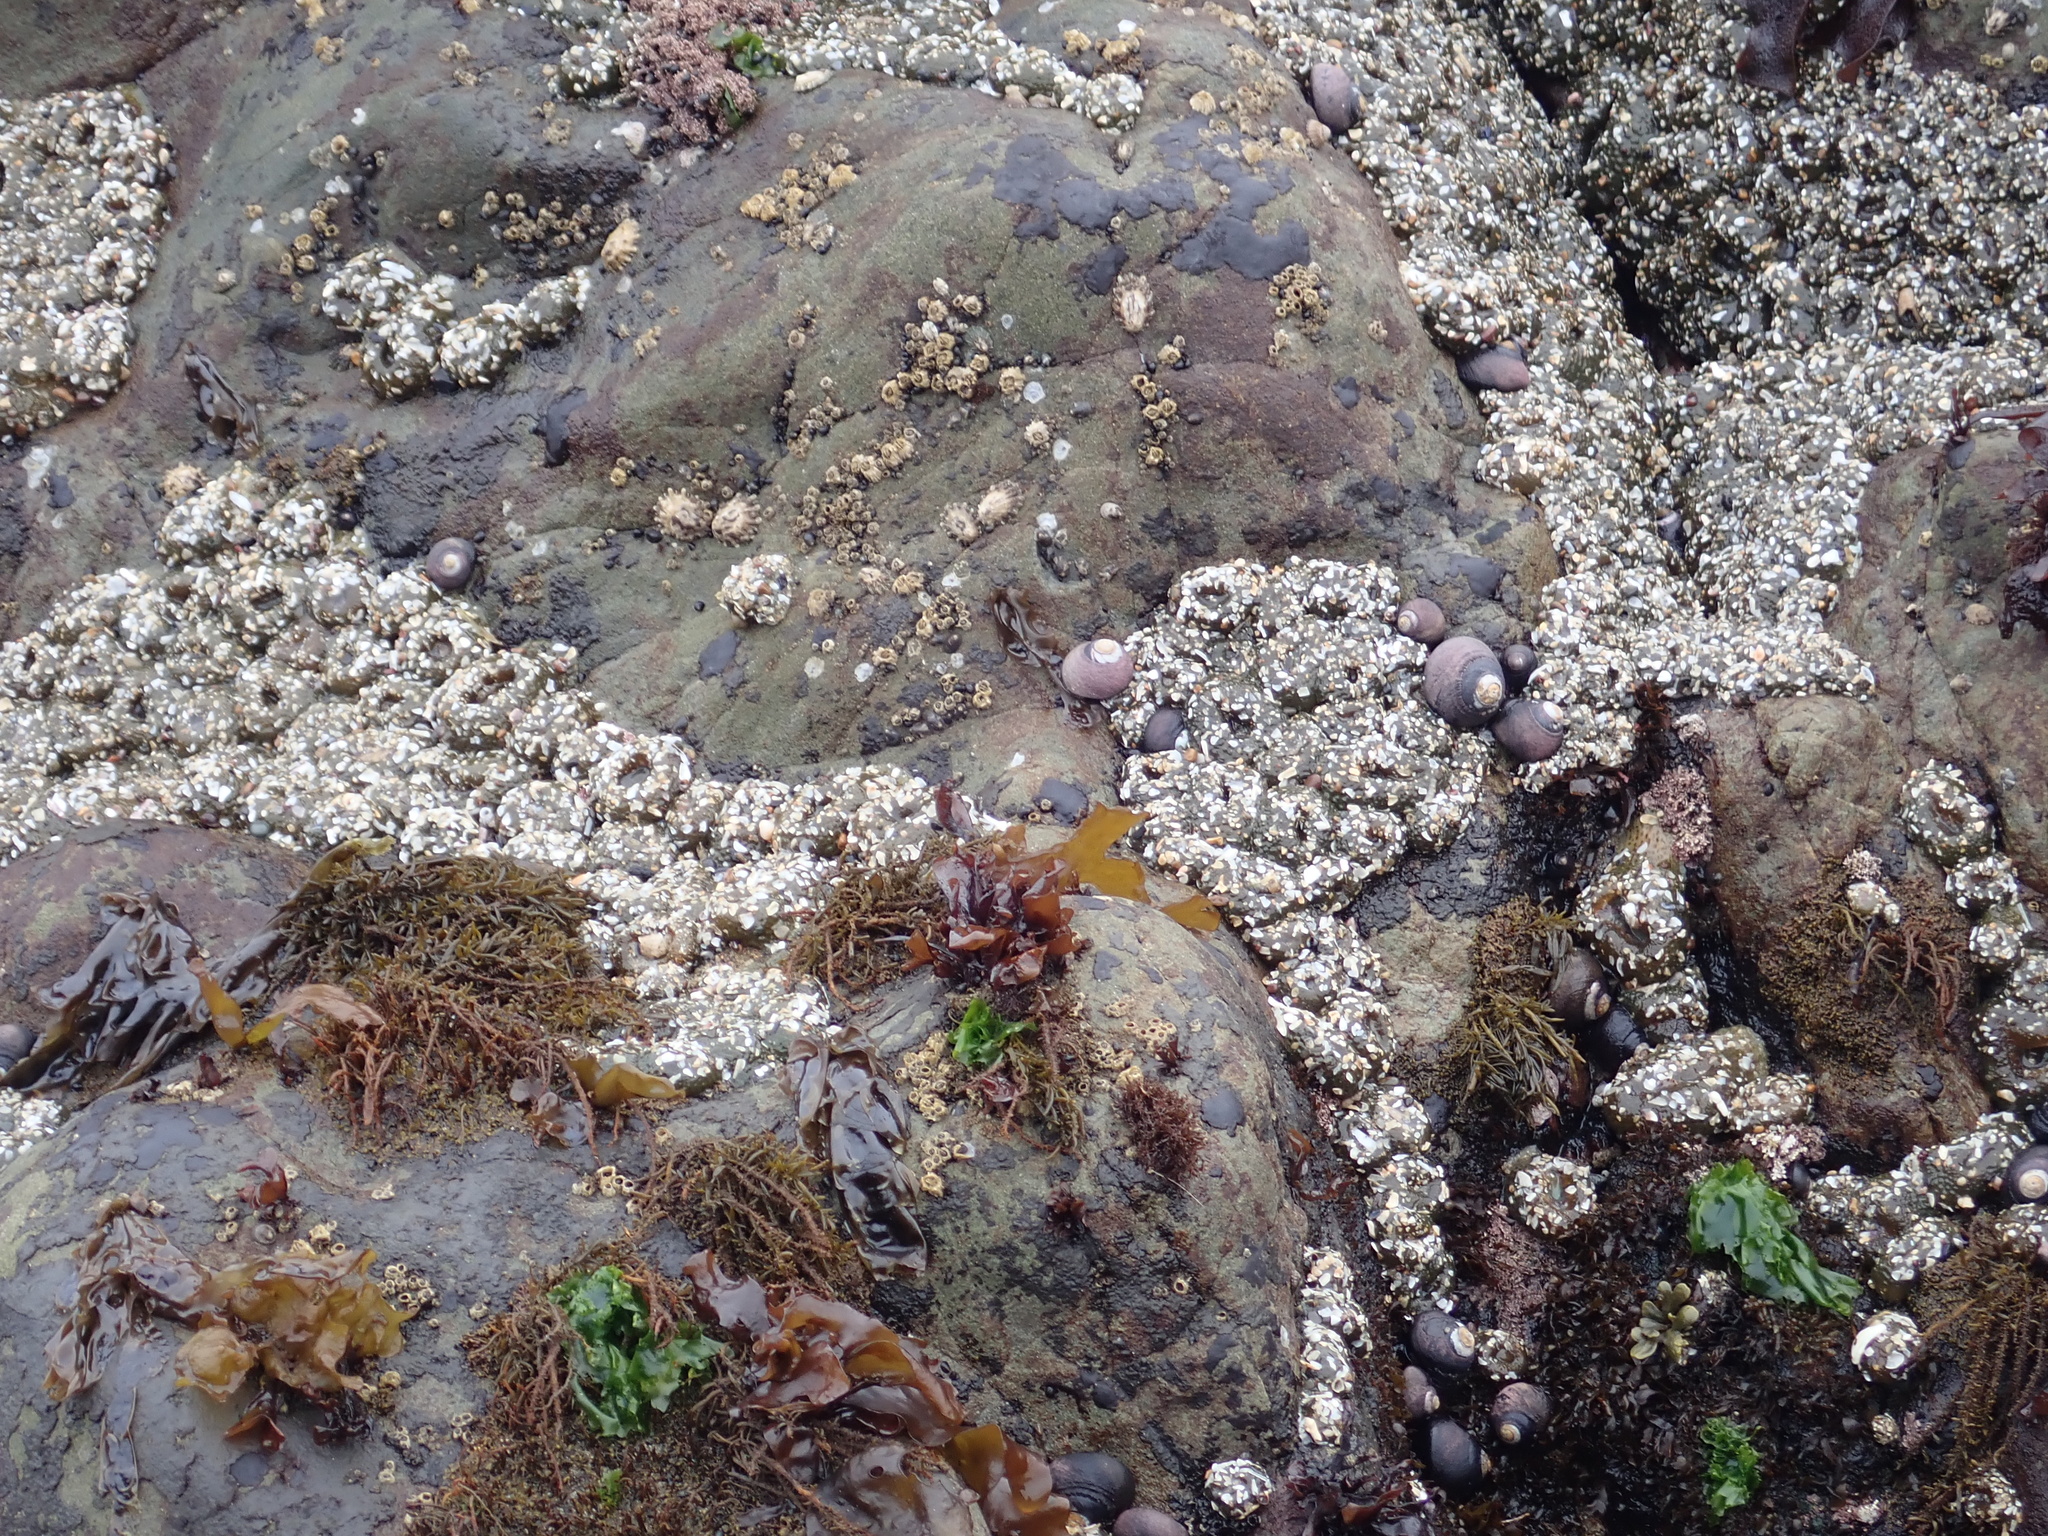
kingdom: Animalia
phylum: Cnidaria
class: Anthozoa
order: Actiniaria
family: Actiniidae
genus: Anthopleura
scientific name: Anthopleura elegantissima
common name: Clonal anemone
